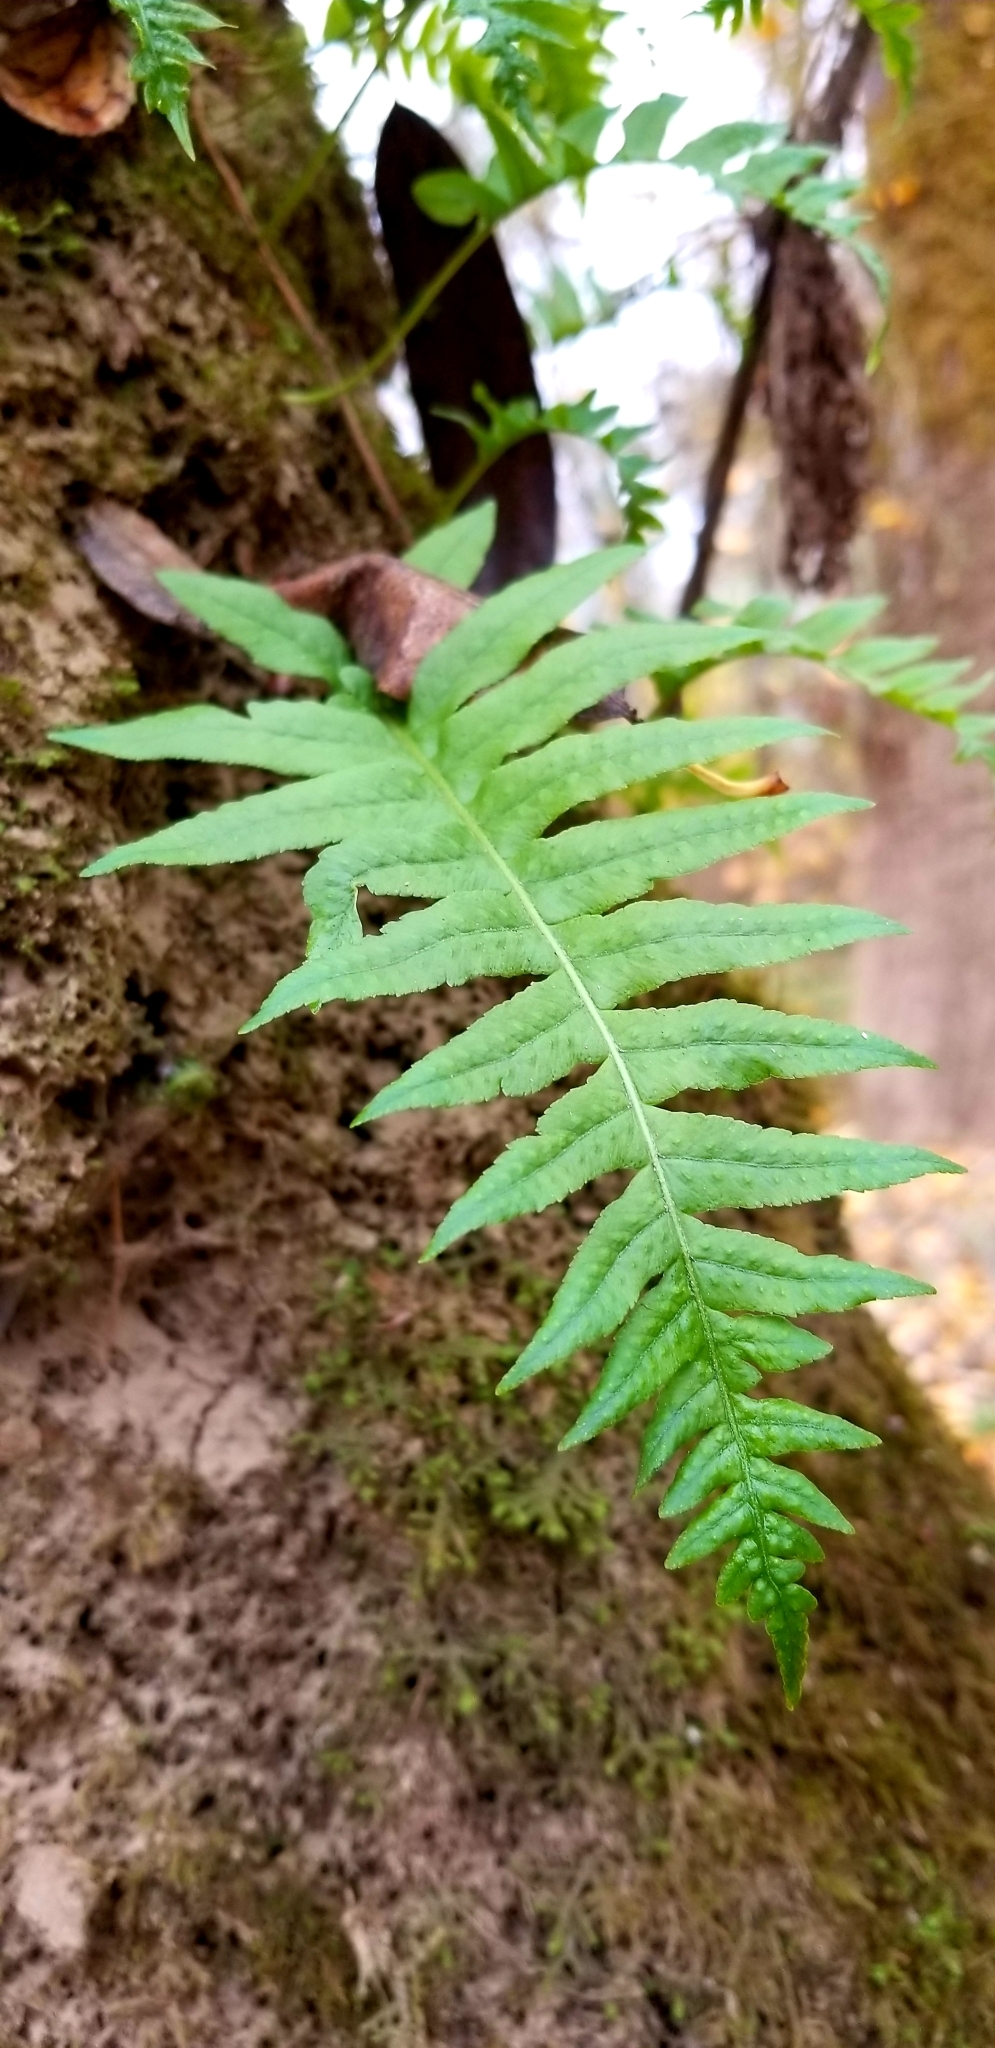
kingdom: Plantae
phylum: Tracheophyta
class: Polypodiopsida
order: Polypodiales
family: Polypodiaceae
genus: Polypodium
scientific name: Polypodium glycyrrhiza
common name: Licorice fern
